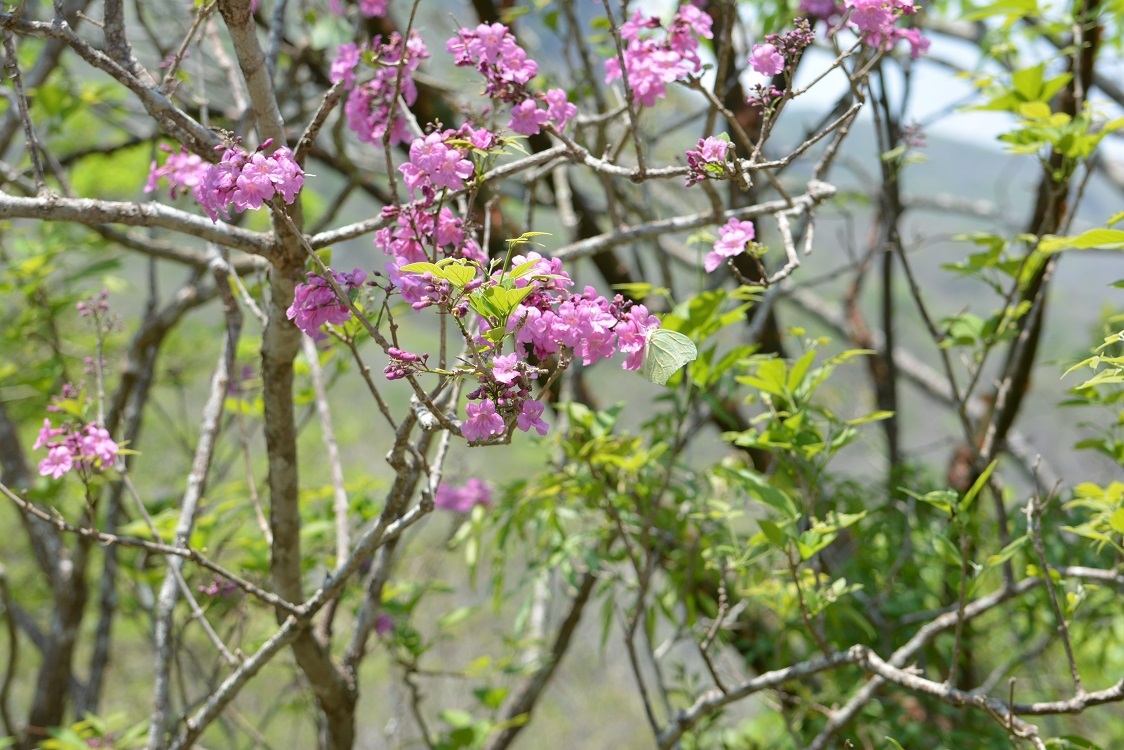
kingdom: Plantae
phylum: Tracheophyta
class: Magnoliopsida
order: Lamiales
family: Bignoniaceae
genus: Handroanthus
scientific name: Handroanthus impetiginosum
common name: Pink trumpet tree
